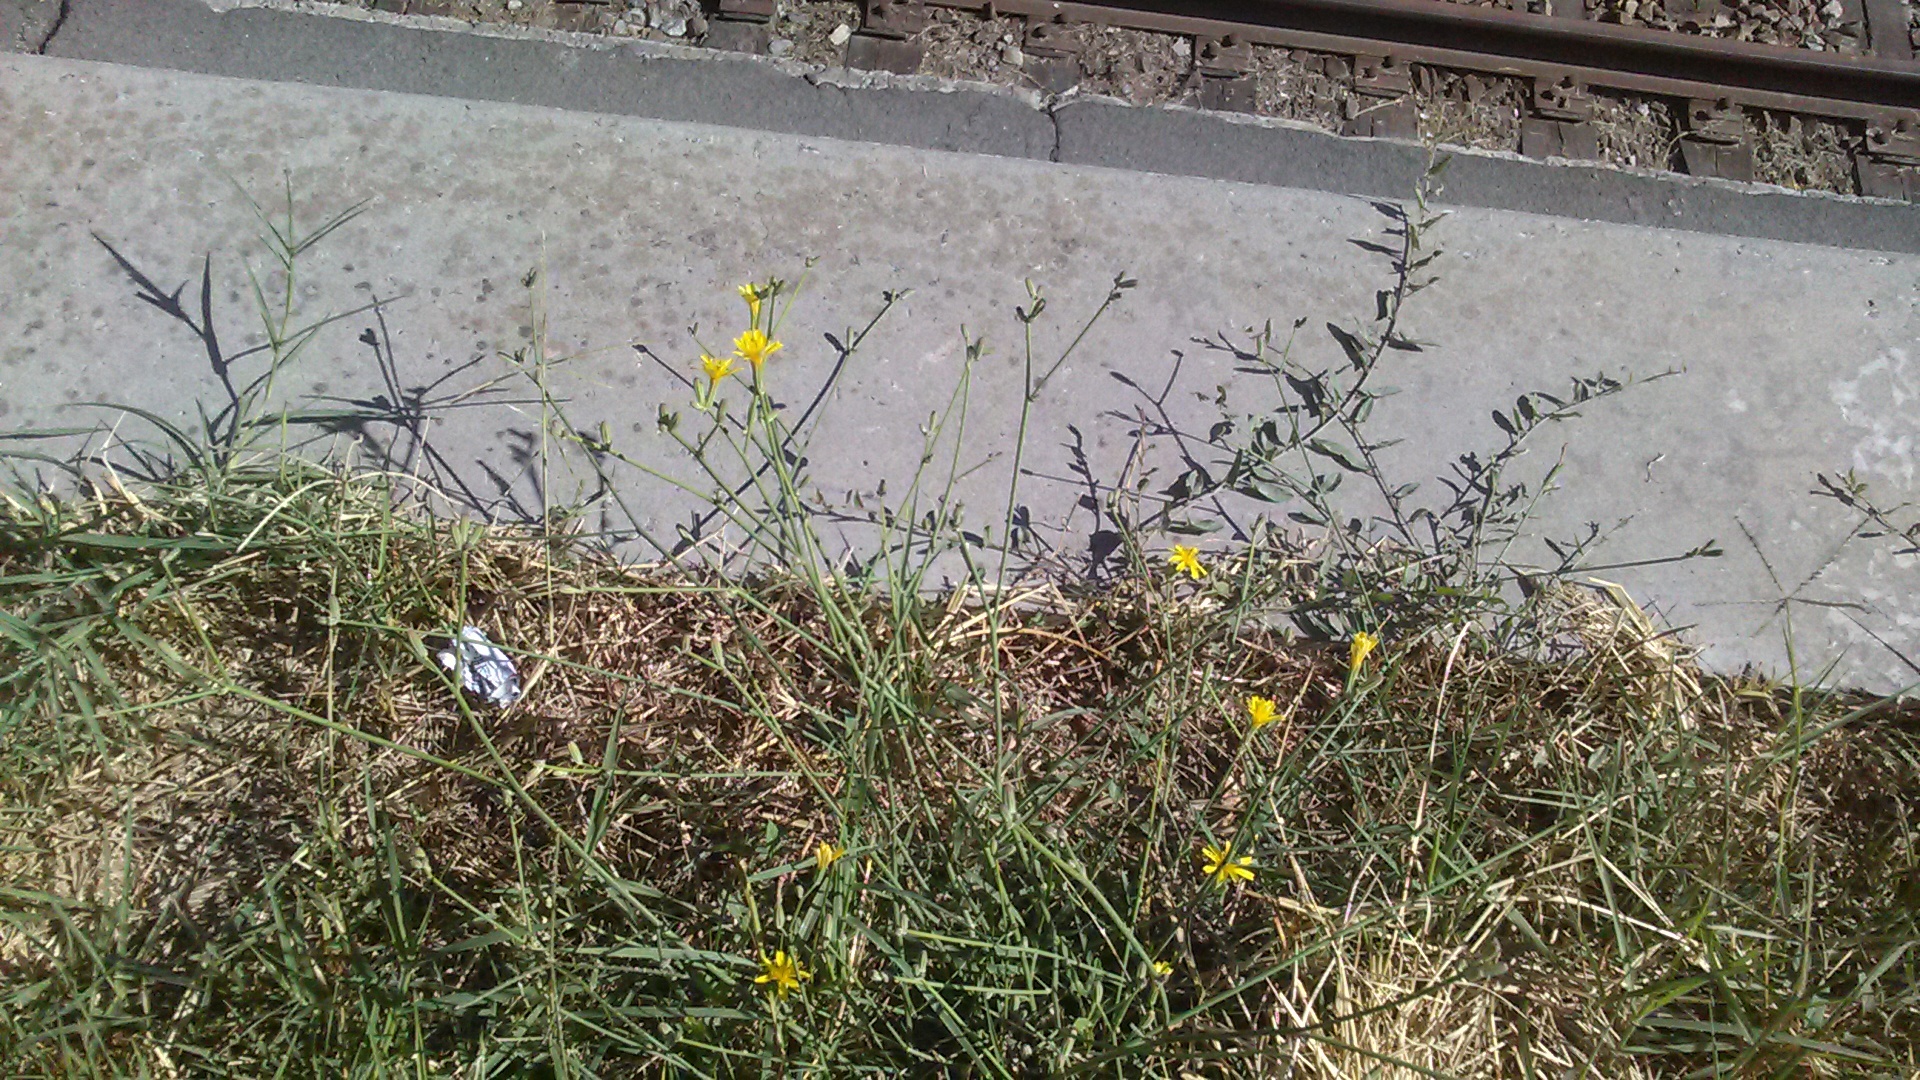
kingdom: Plantae
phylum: Tracheophyta
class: Magnoliopsida
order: Asterales
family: Asteraceae
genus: Chondrilla
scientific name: Chondrilla juncea
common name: Skeleton weed
